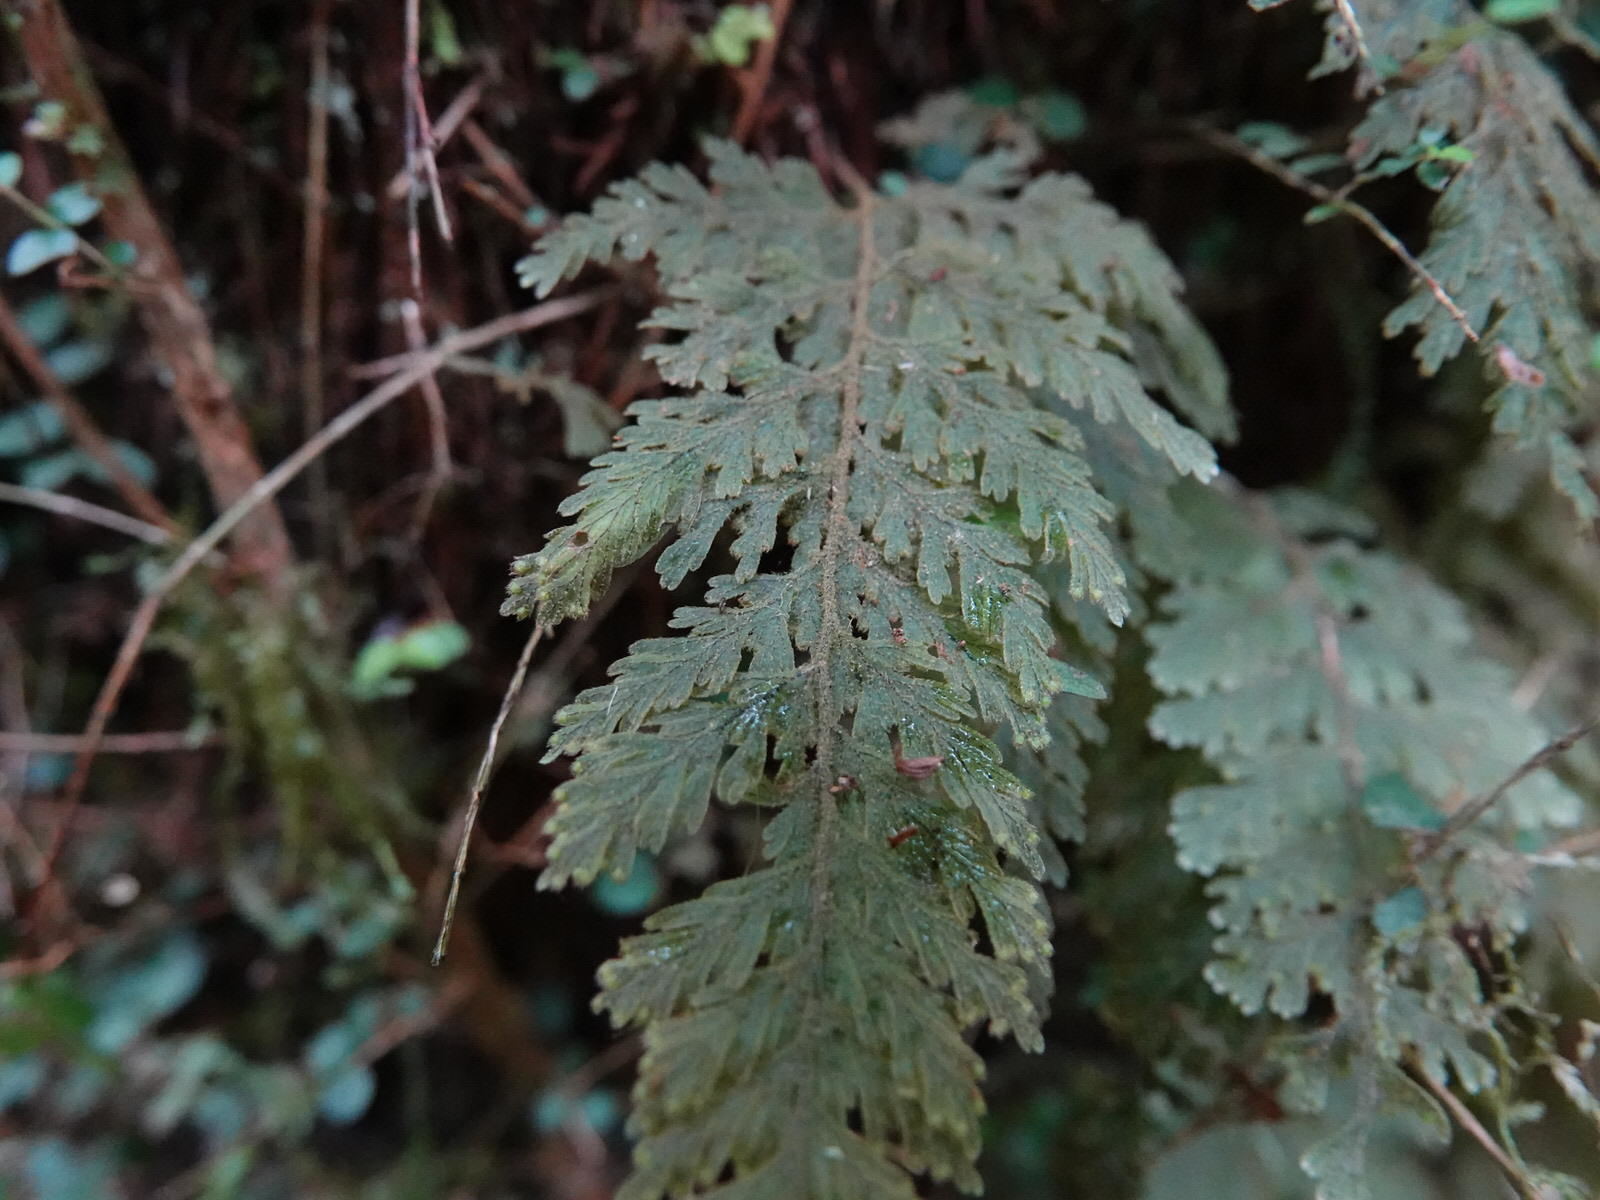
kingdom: Plantae
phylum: Tracheophyta
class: Polypodiopsida
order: Hymenophyllales
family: Hymenophyllaceae
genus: Hymenophyllum
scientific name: Hymenophyllum frankliniae
